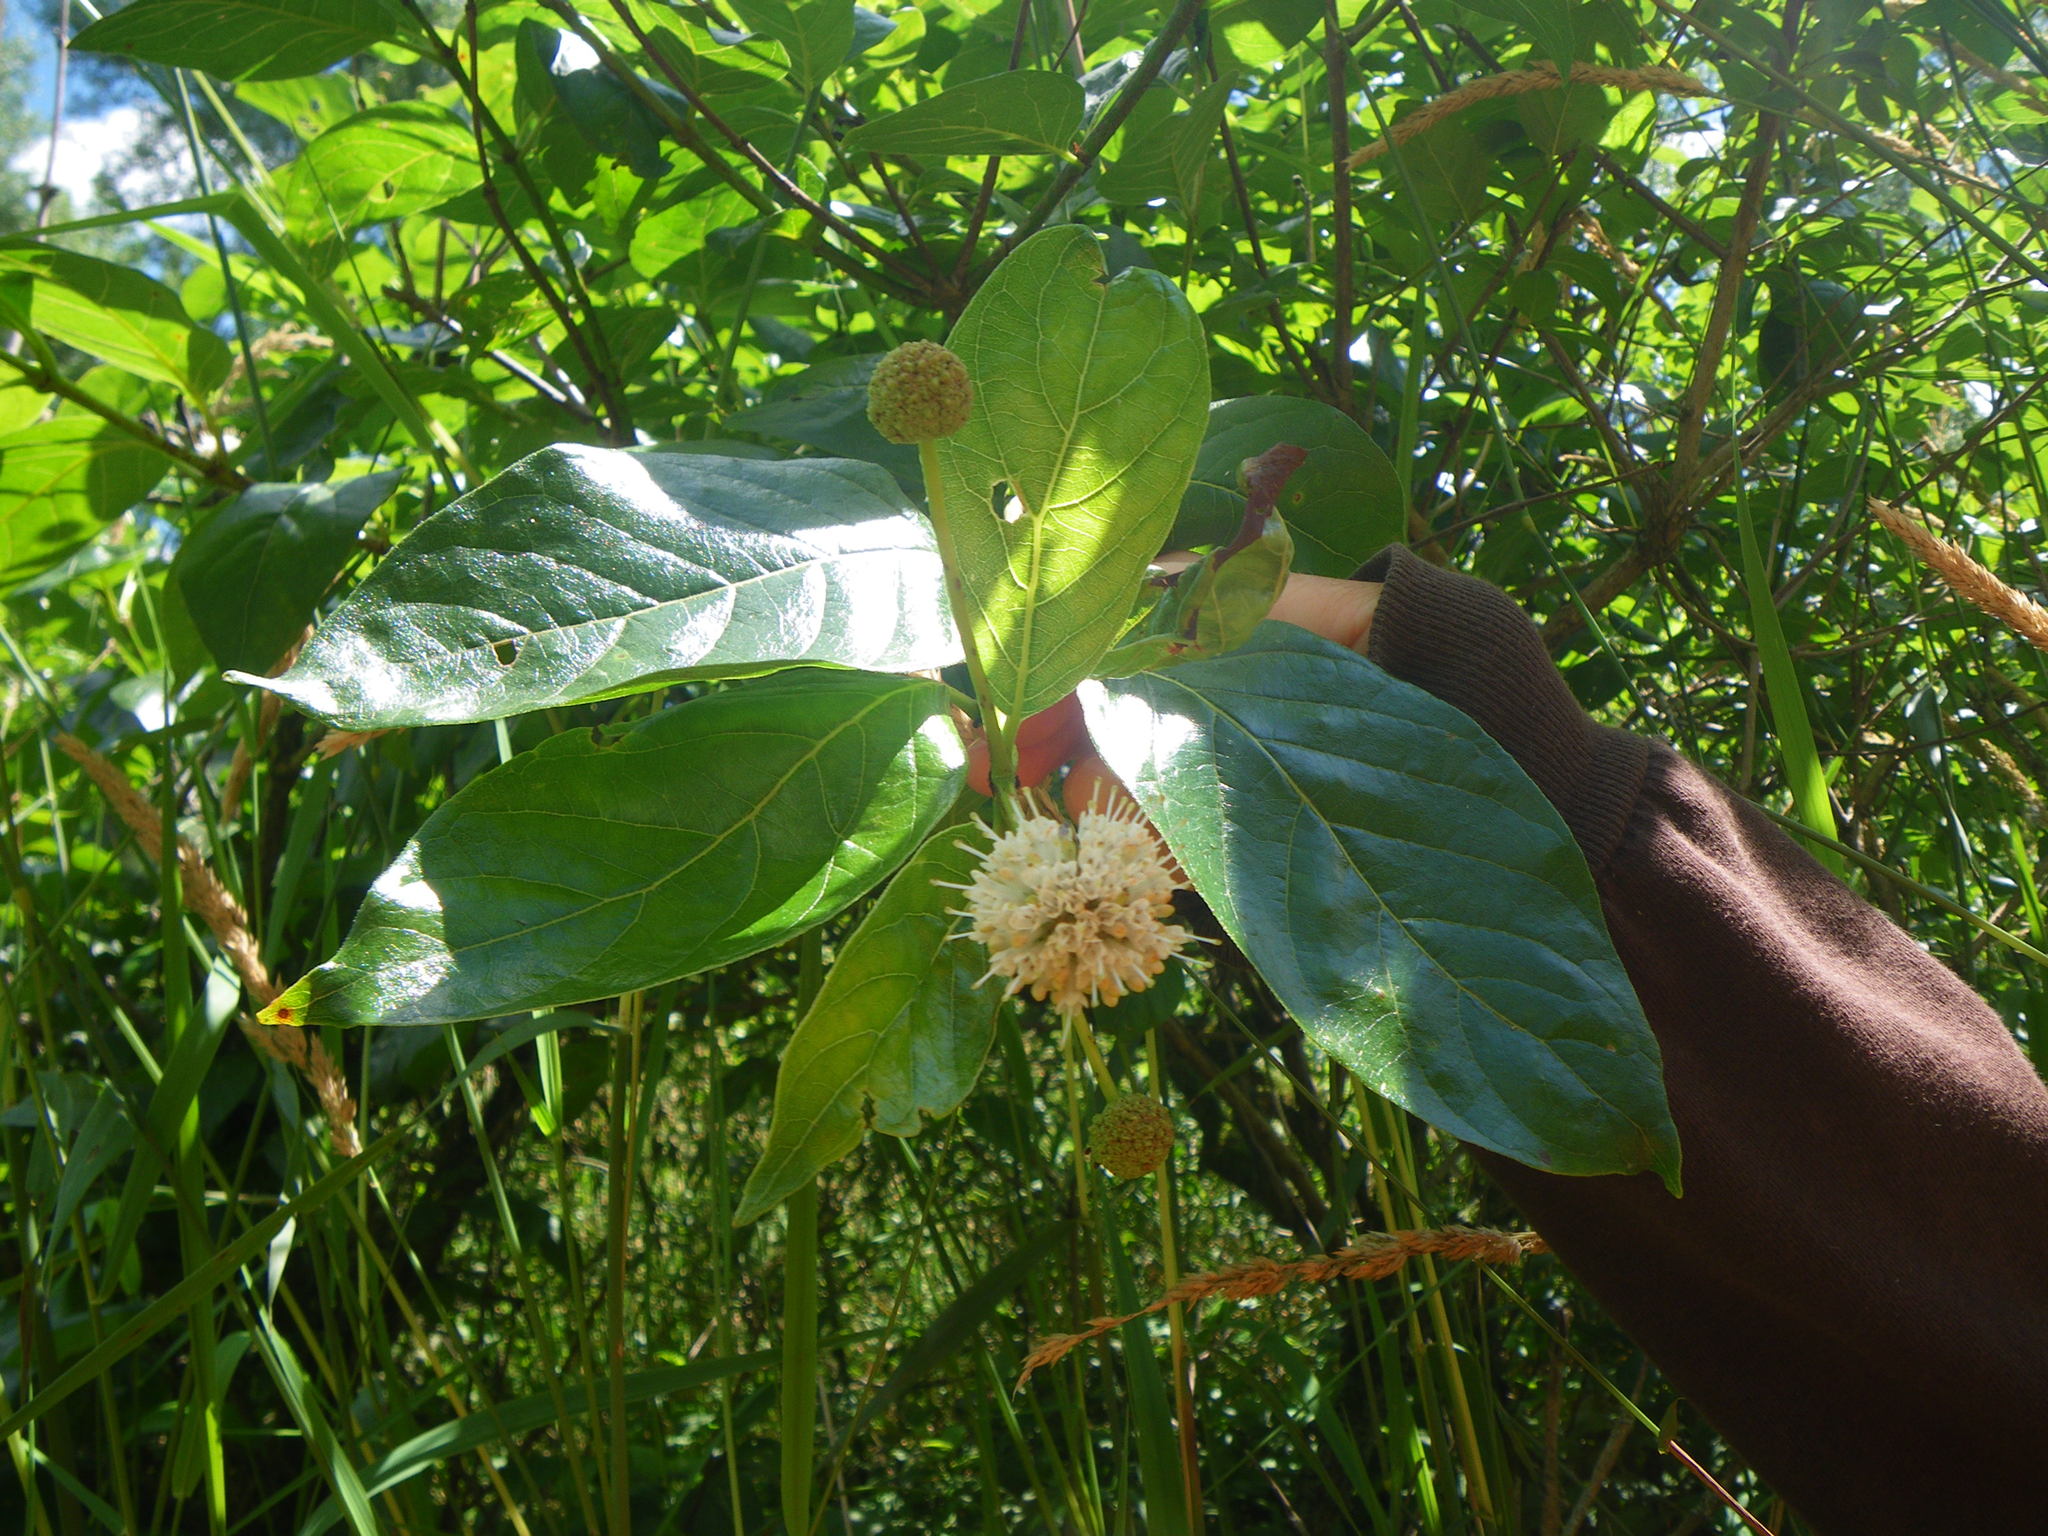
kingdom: Plantae
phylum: Tracheophyta
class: Magnoliopsida
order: Gentianales
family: Rubiaceae
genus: Cephalanthus
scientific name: Cephalanthus occidentalis
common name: Button-willow
